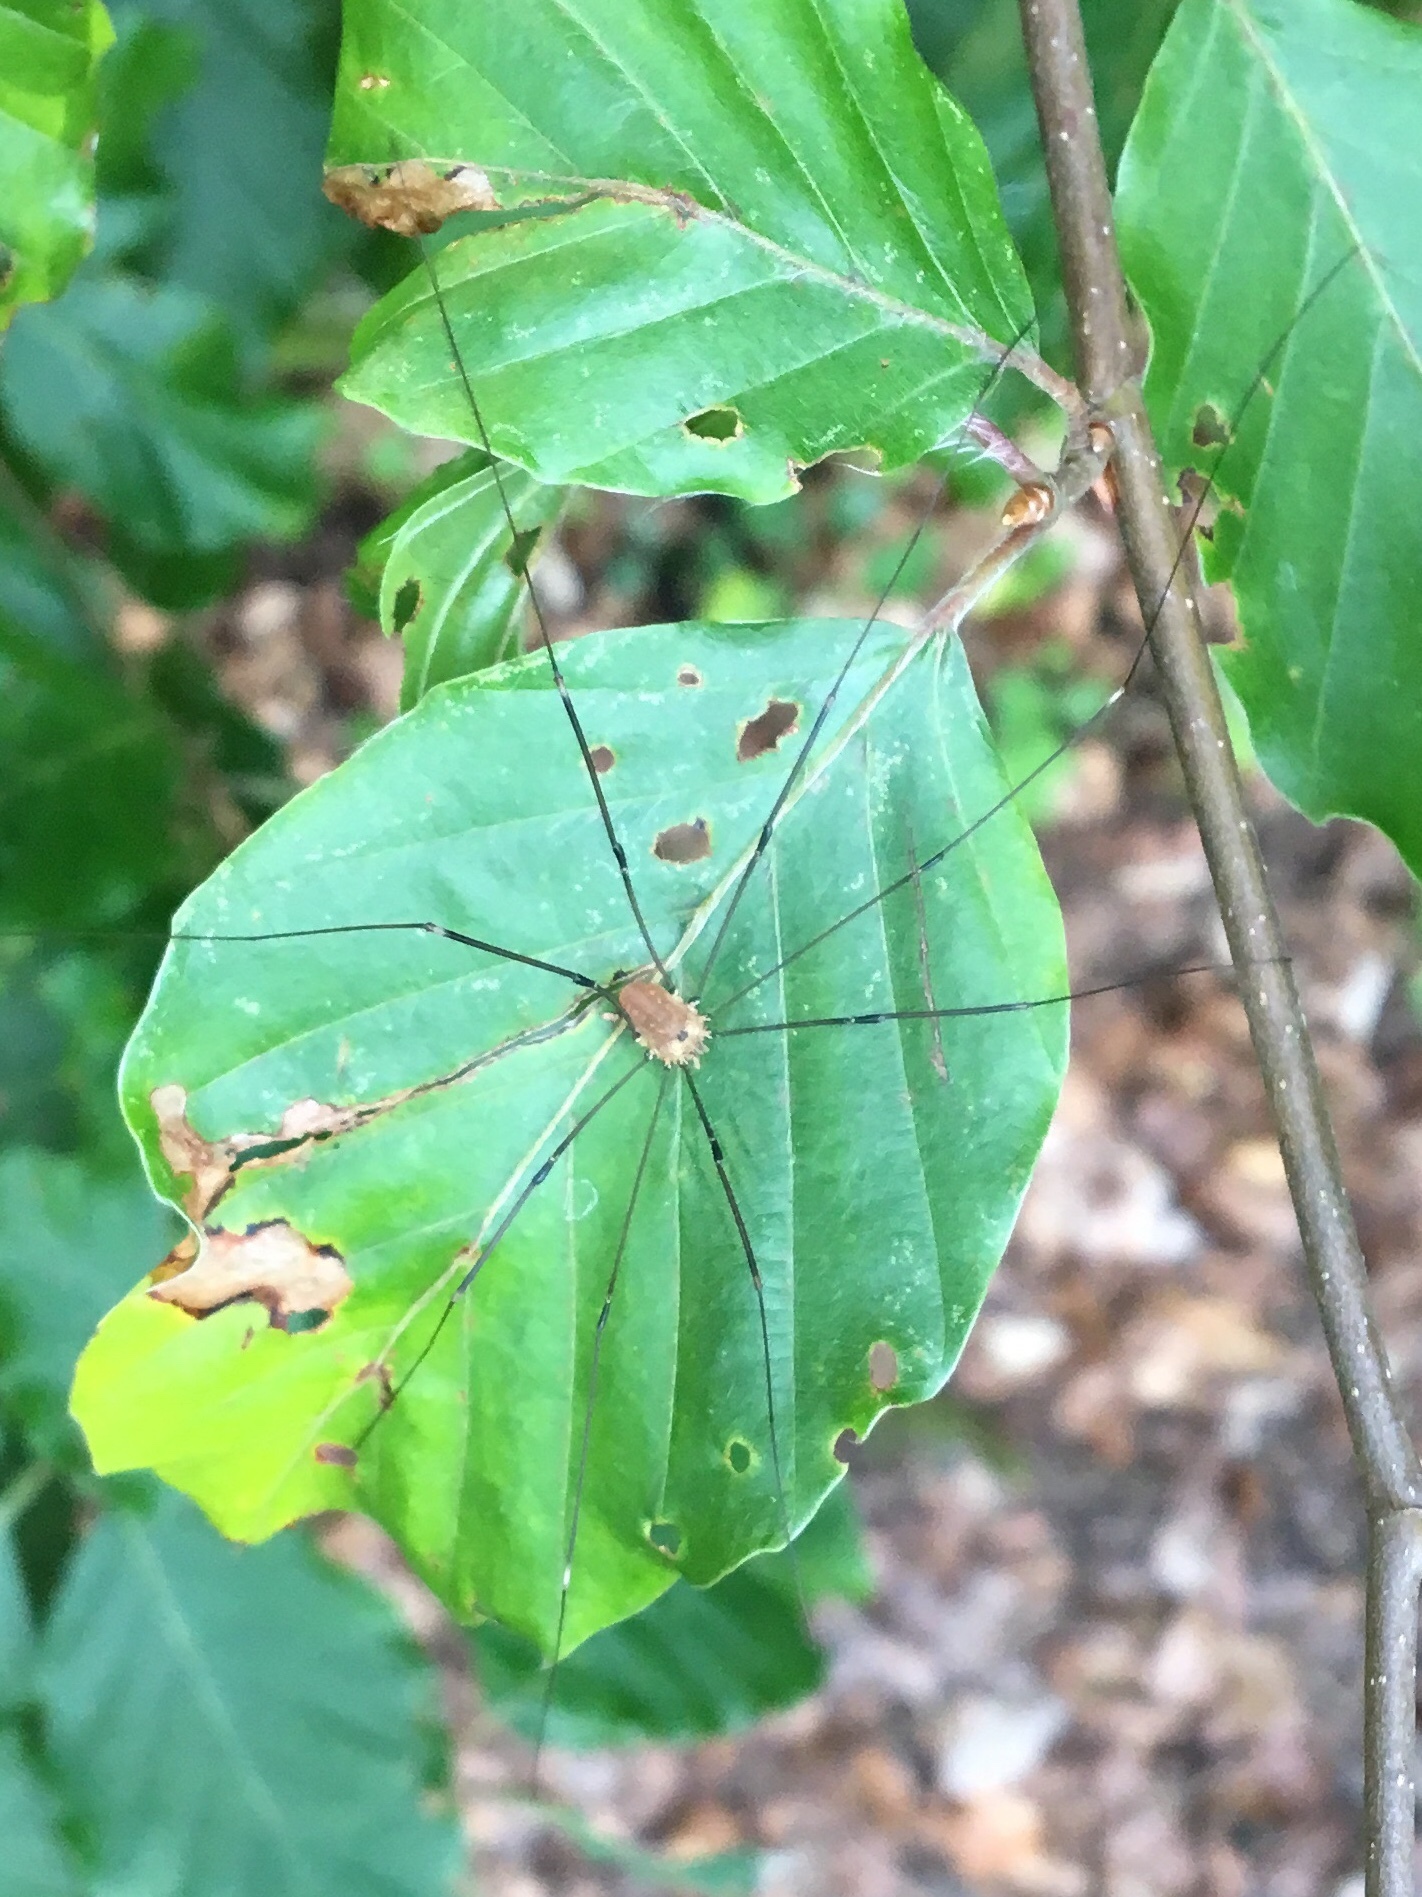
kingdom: Animalia
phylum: Arthropoda
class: Arachnida
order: Opiliones
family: Sclerosomatidae
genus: Leiobunum
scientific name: Leiobunum rotundum
